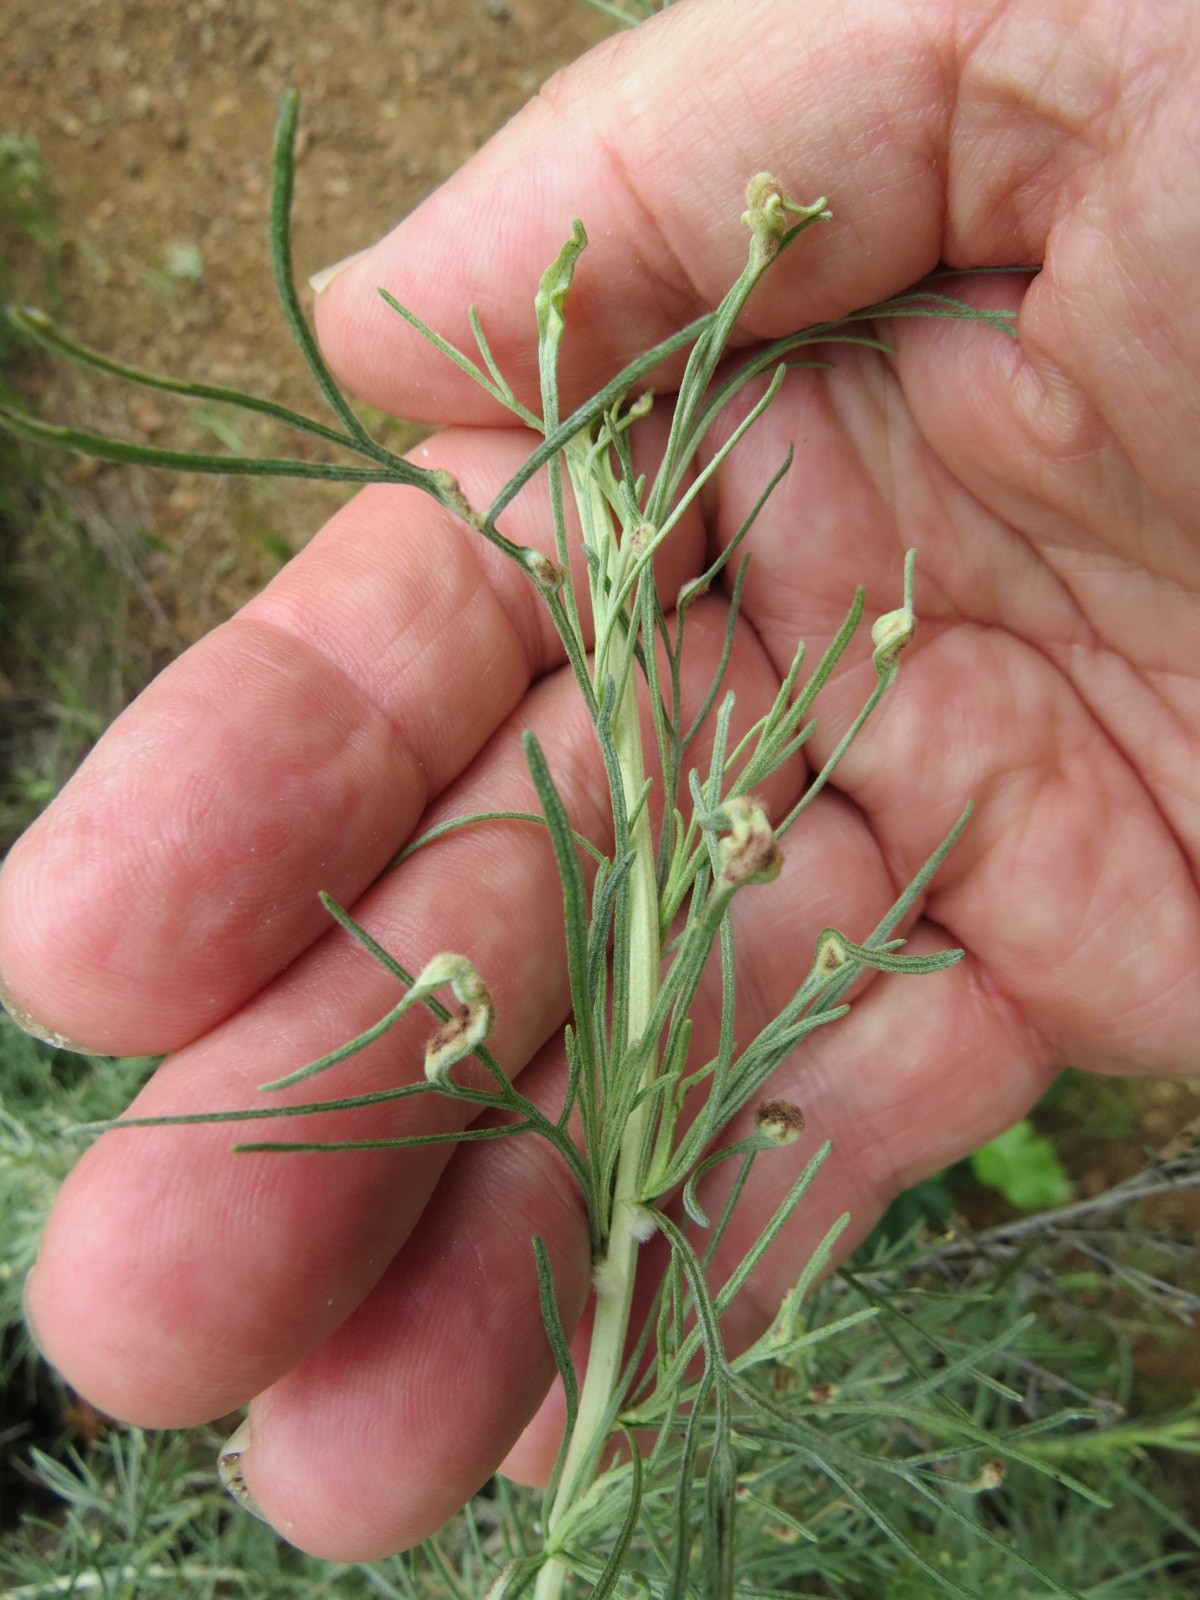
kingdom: Animalia
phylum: Arthropoda
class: Arachnida
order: Trombidiformes
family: Eriophyidae
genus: Aceria
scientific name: Aceria
